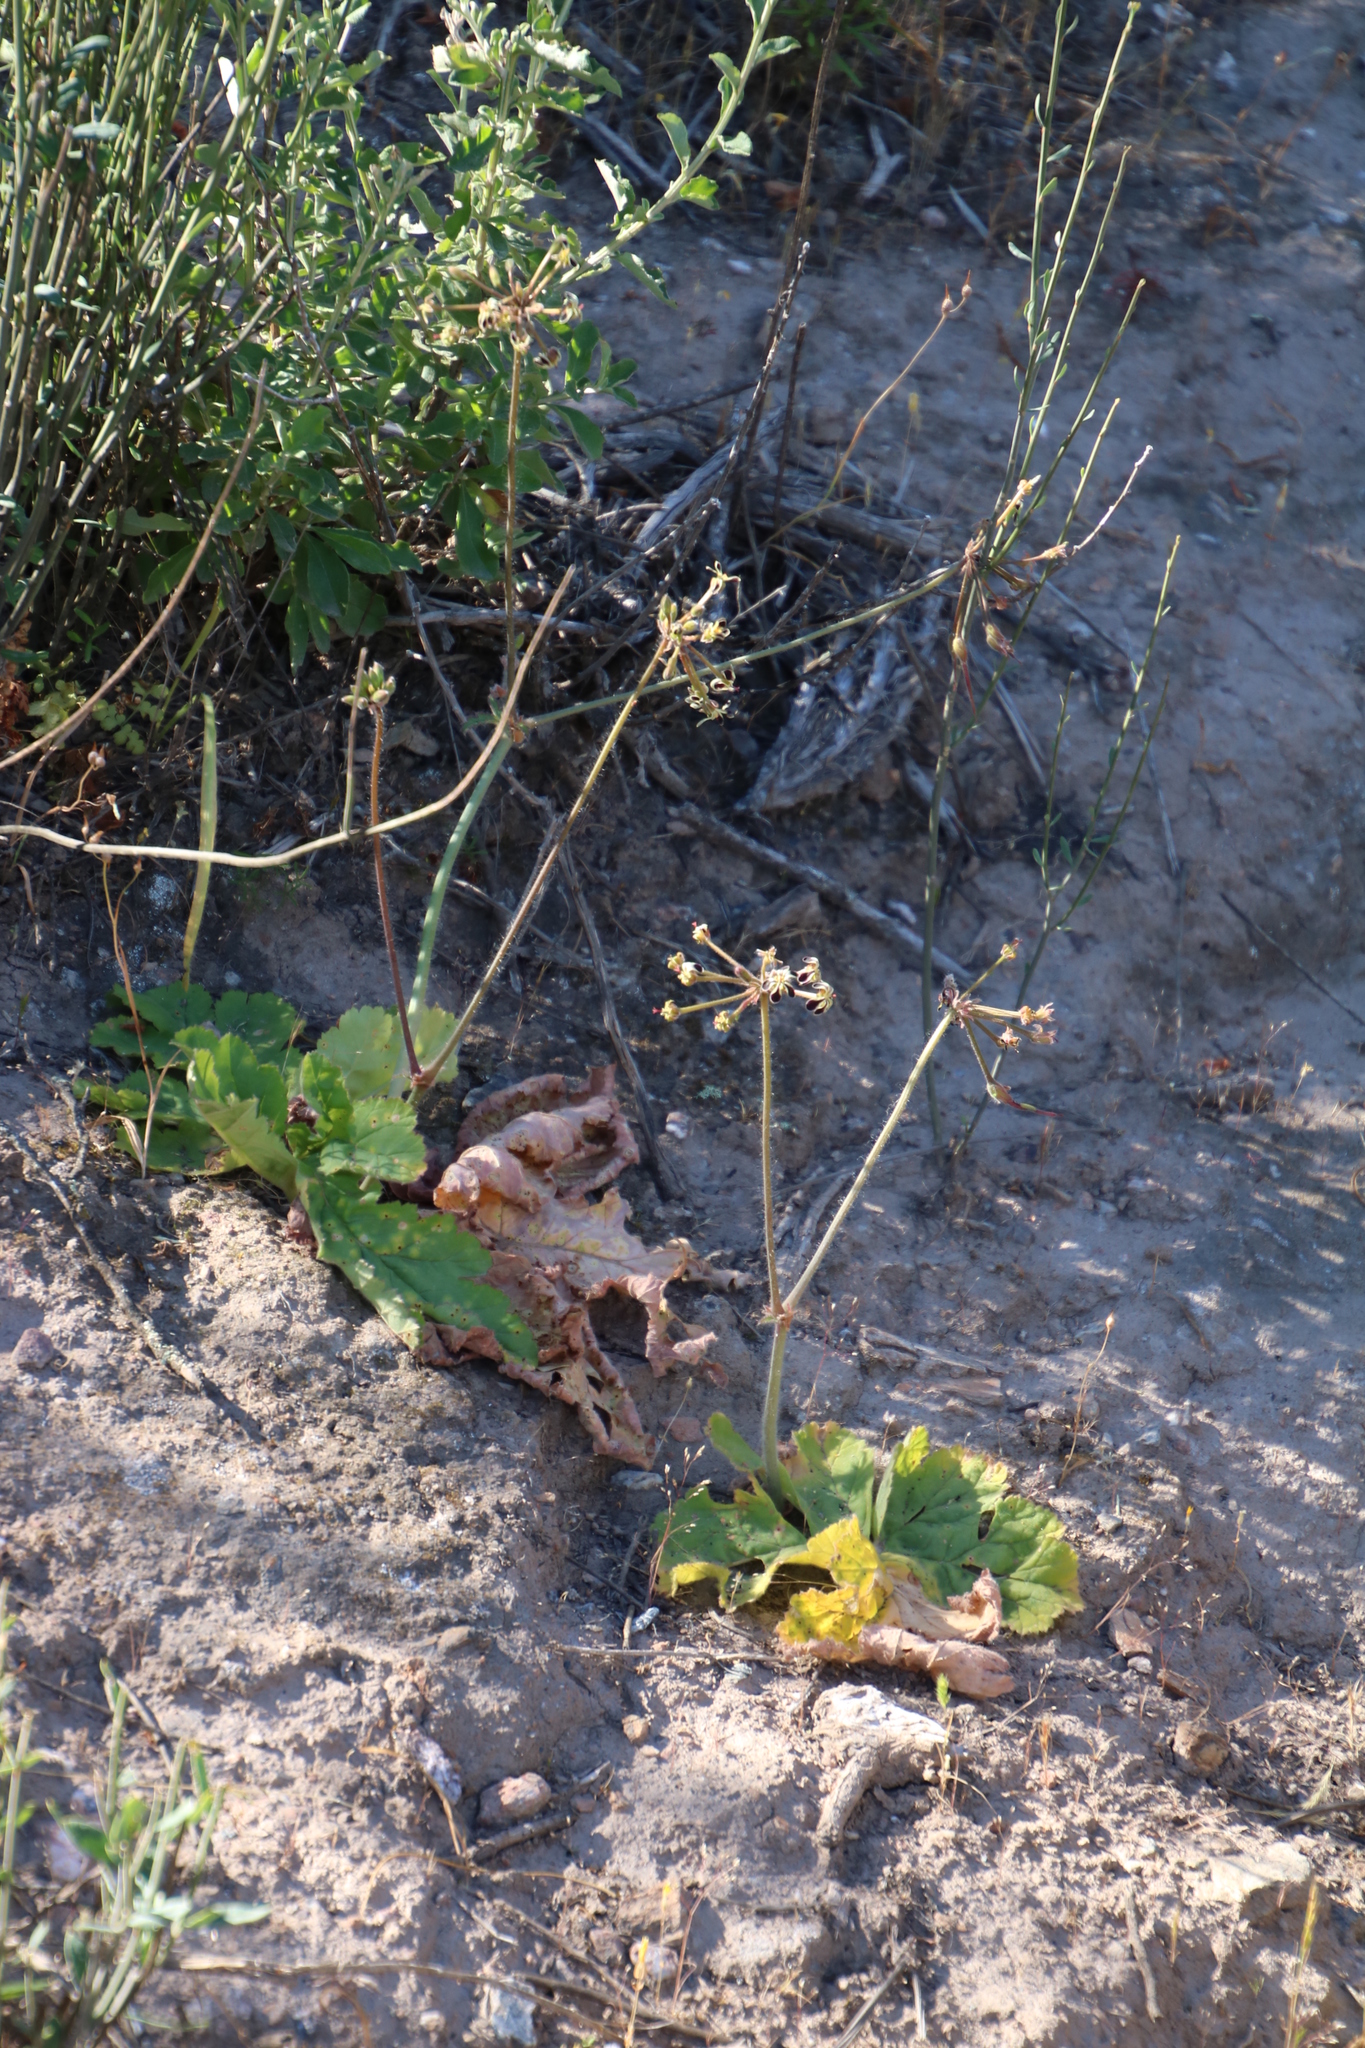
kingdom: Plantae
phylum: Tracheophyta
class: Magnoliopsida
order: Geraniales
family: Geraniaceae
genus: Pelargonium
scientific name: Pelargonium lobatum
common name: Vine-leaf pelargonium
